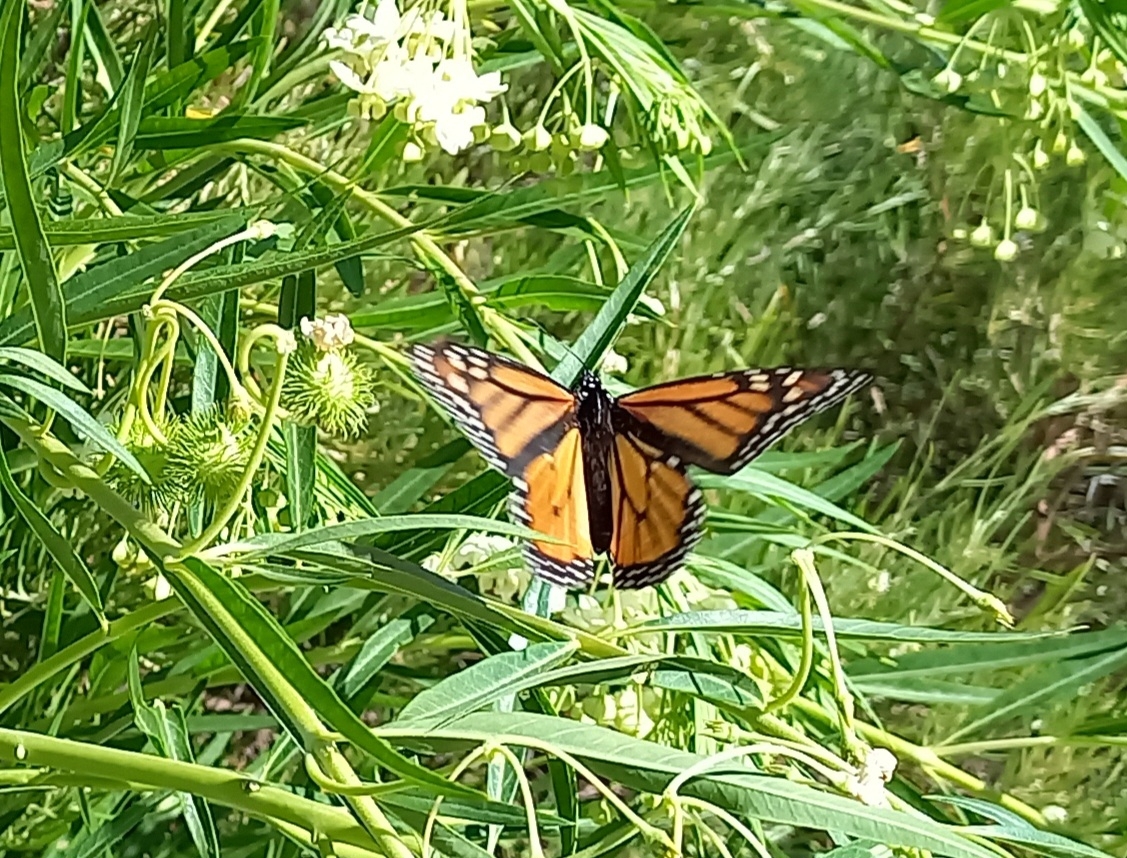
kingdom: Animalia
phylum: Arthropoda
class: Insecta
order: Lepidoptera
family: Nymphalidae
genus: Danaus
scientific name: Danaus plexippus
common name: Monarch
